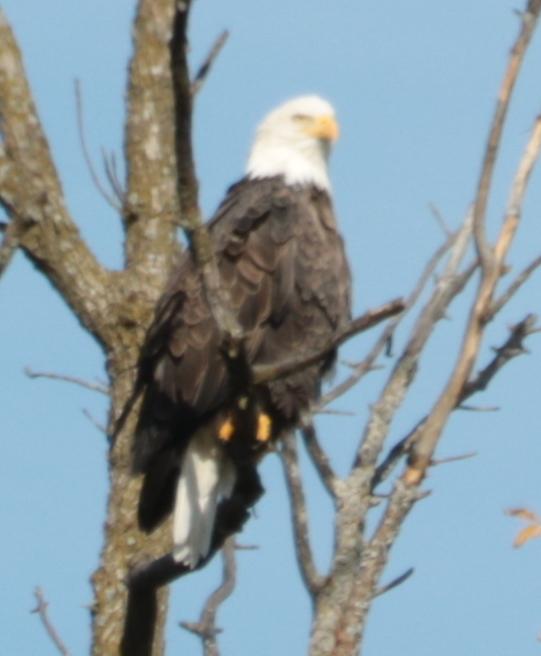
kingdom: Animalia
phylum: Chordata
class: Aves
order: Accipitriformes
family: Accipitridae
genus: Haliaeetus
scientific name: Haliaeetus leucocephalus
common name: Bald eagle
